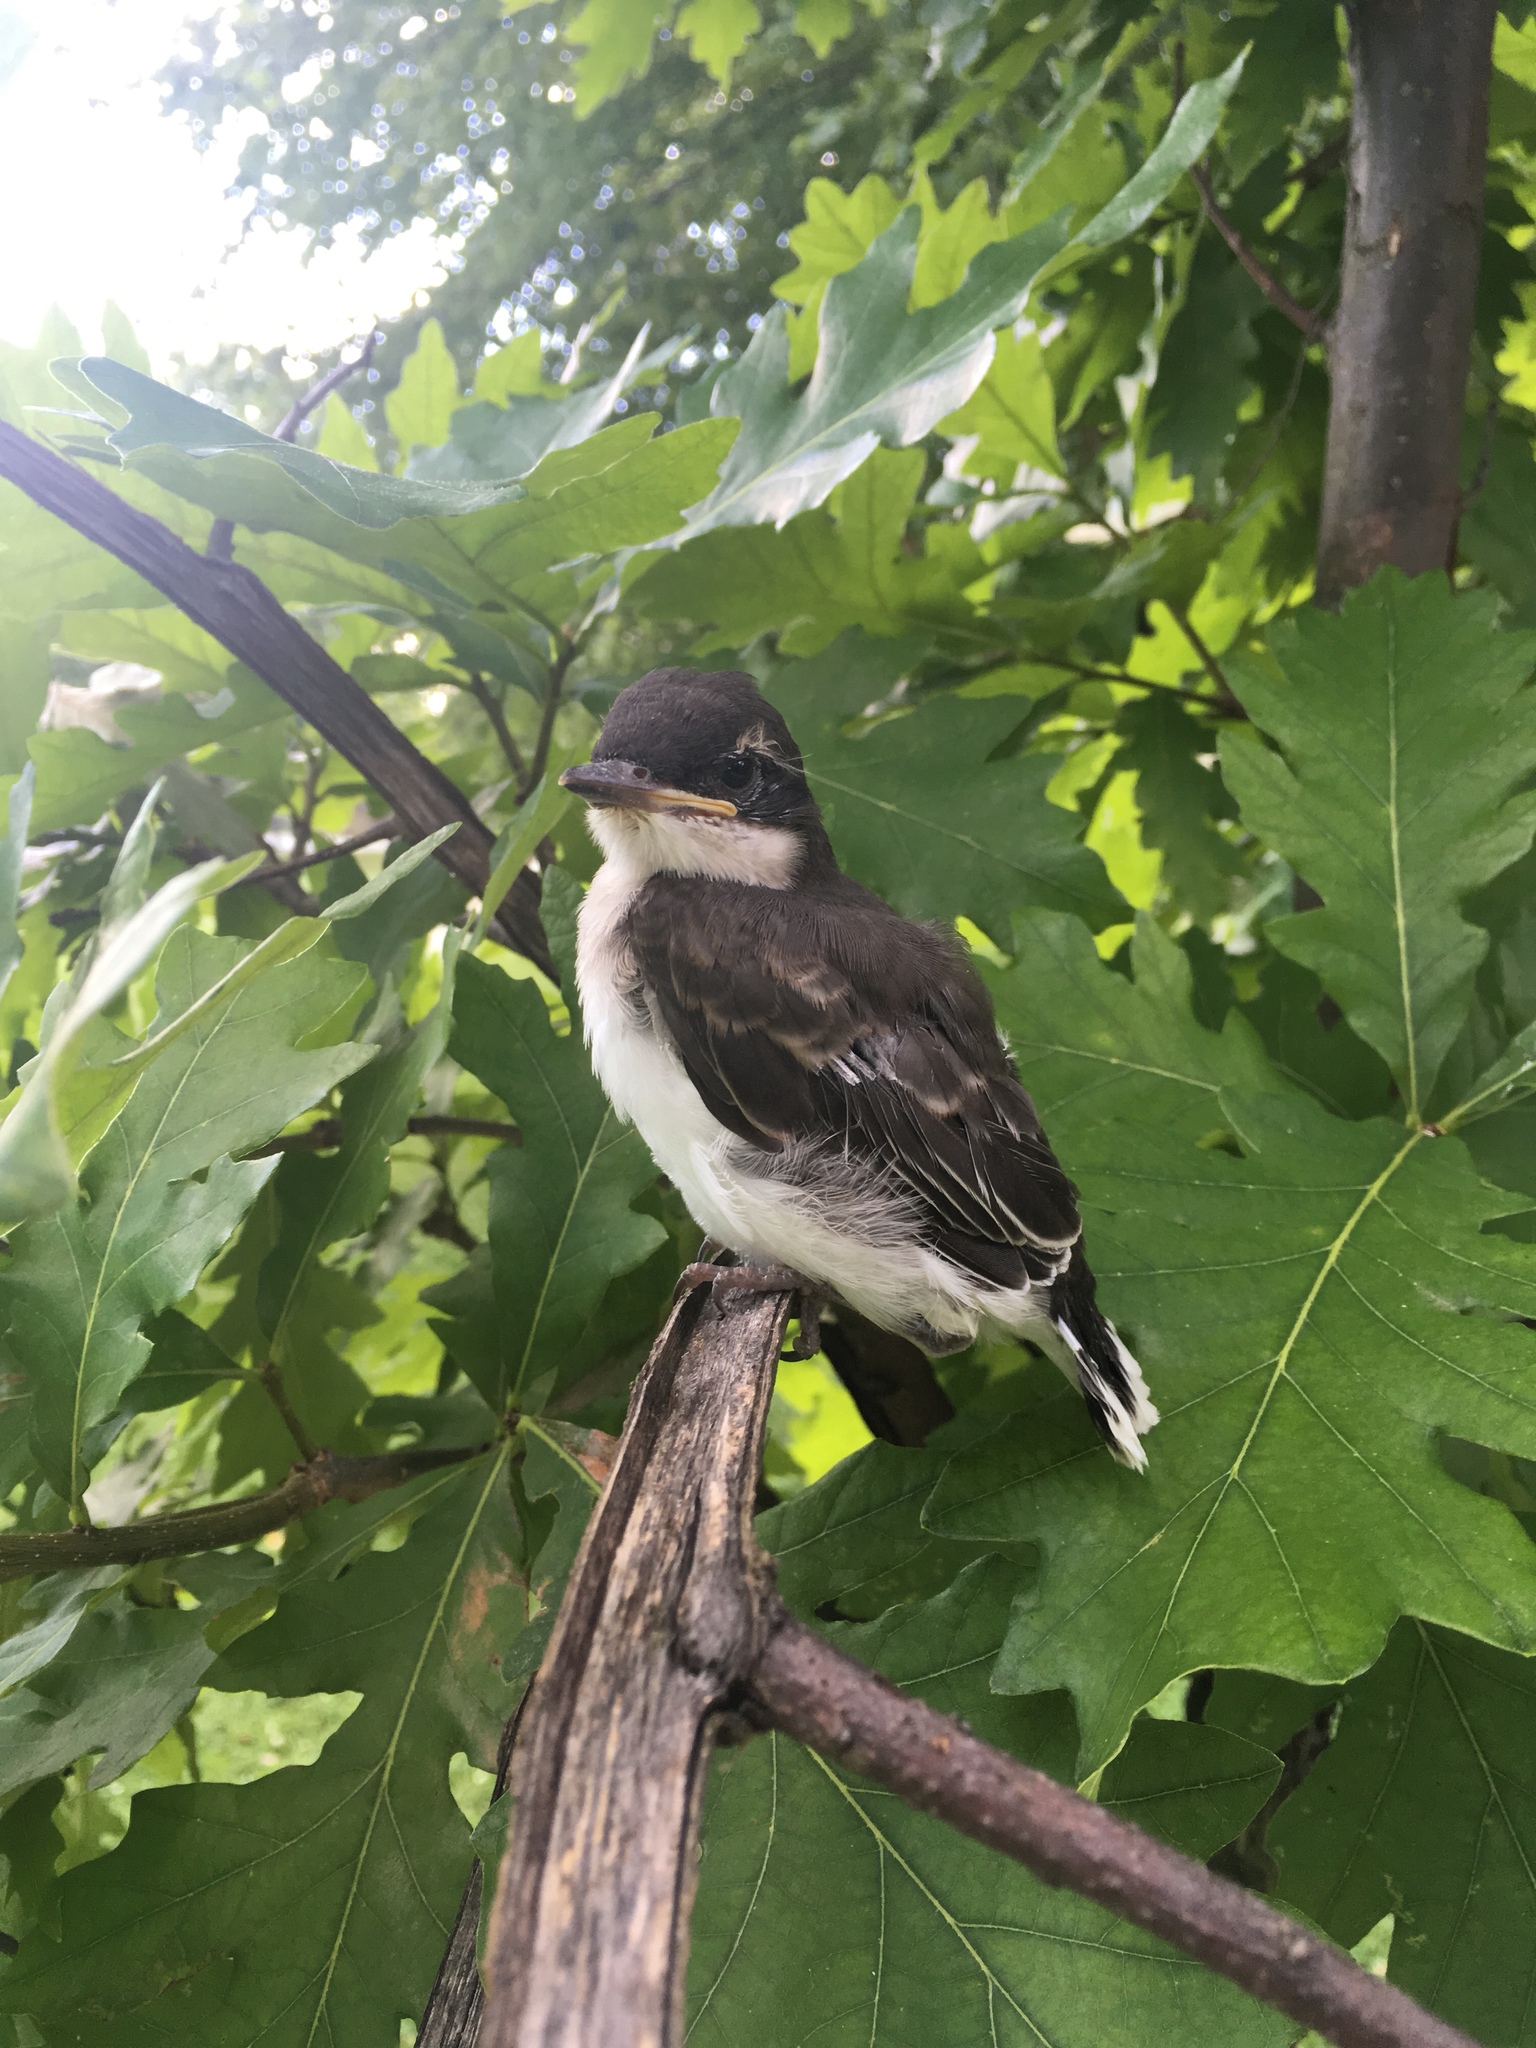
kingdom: Animalia
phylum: Chordata
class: Aves
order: Passeriformes
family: Tyrannidae
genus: Tyrannus
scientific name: Tyrannus tyrannus
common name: Eastern kingbird
